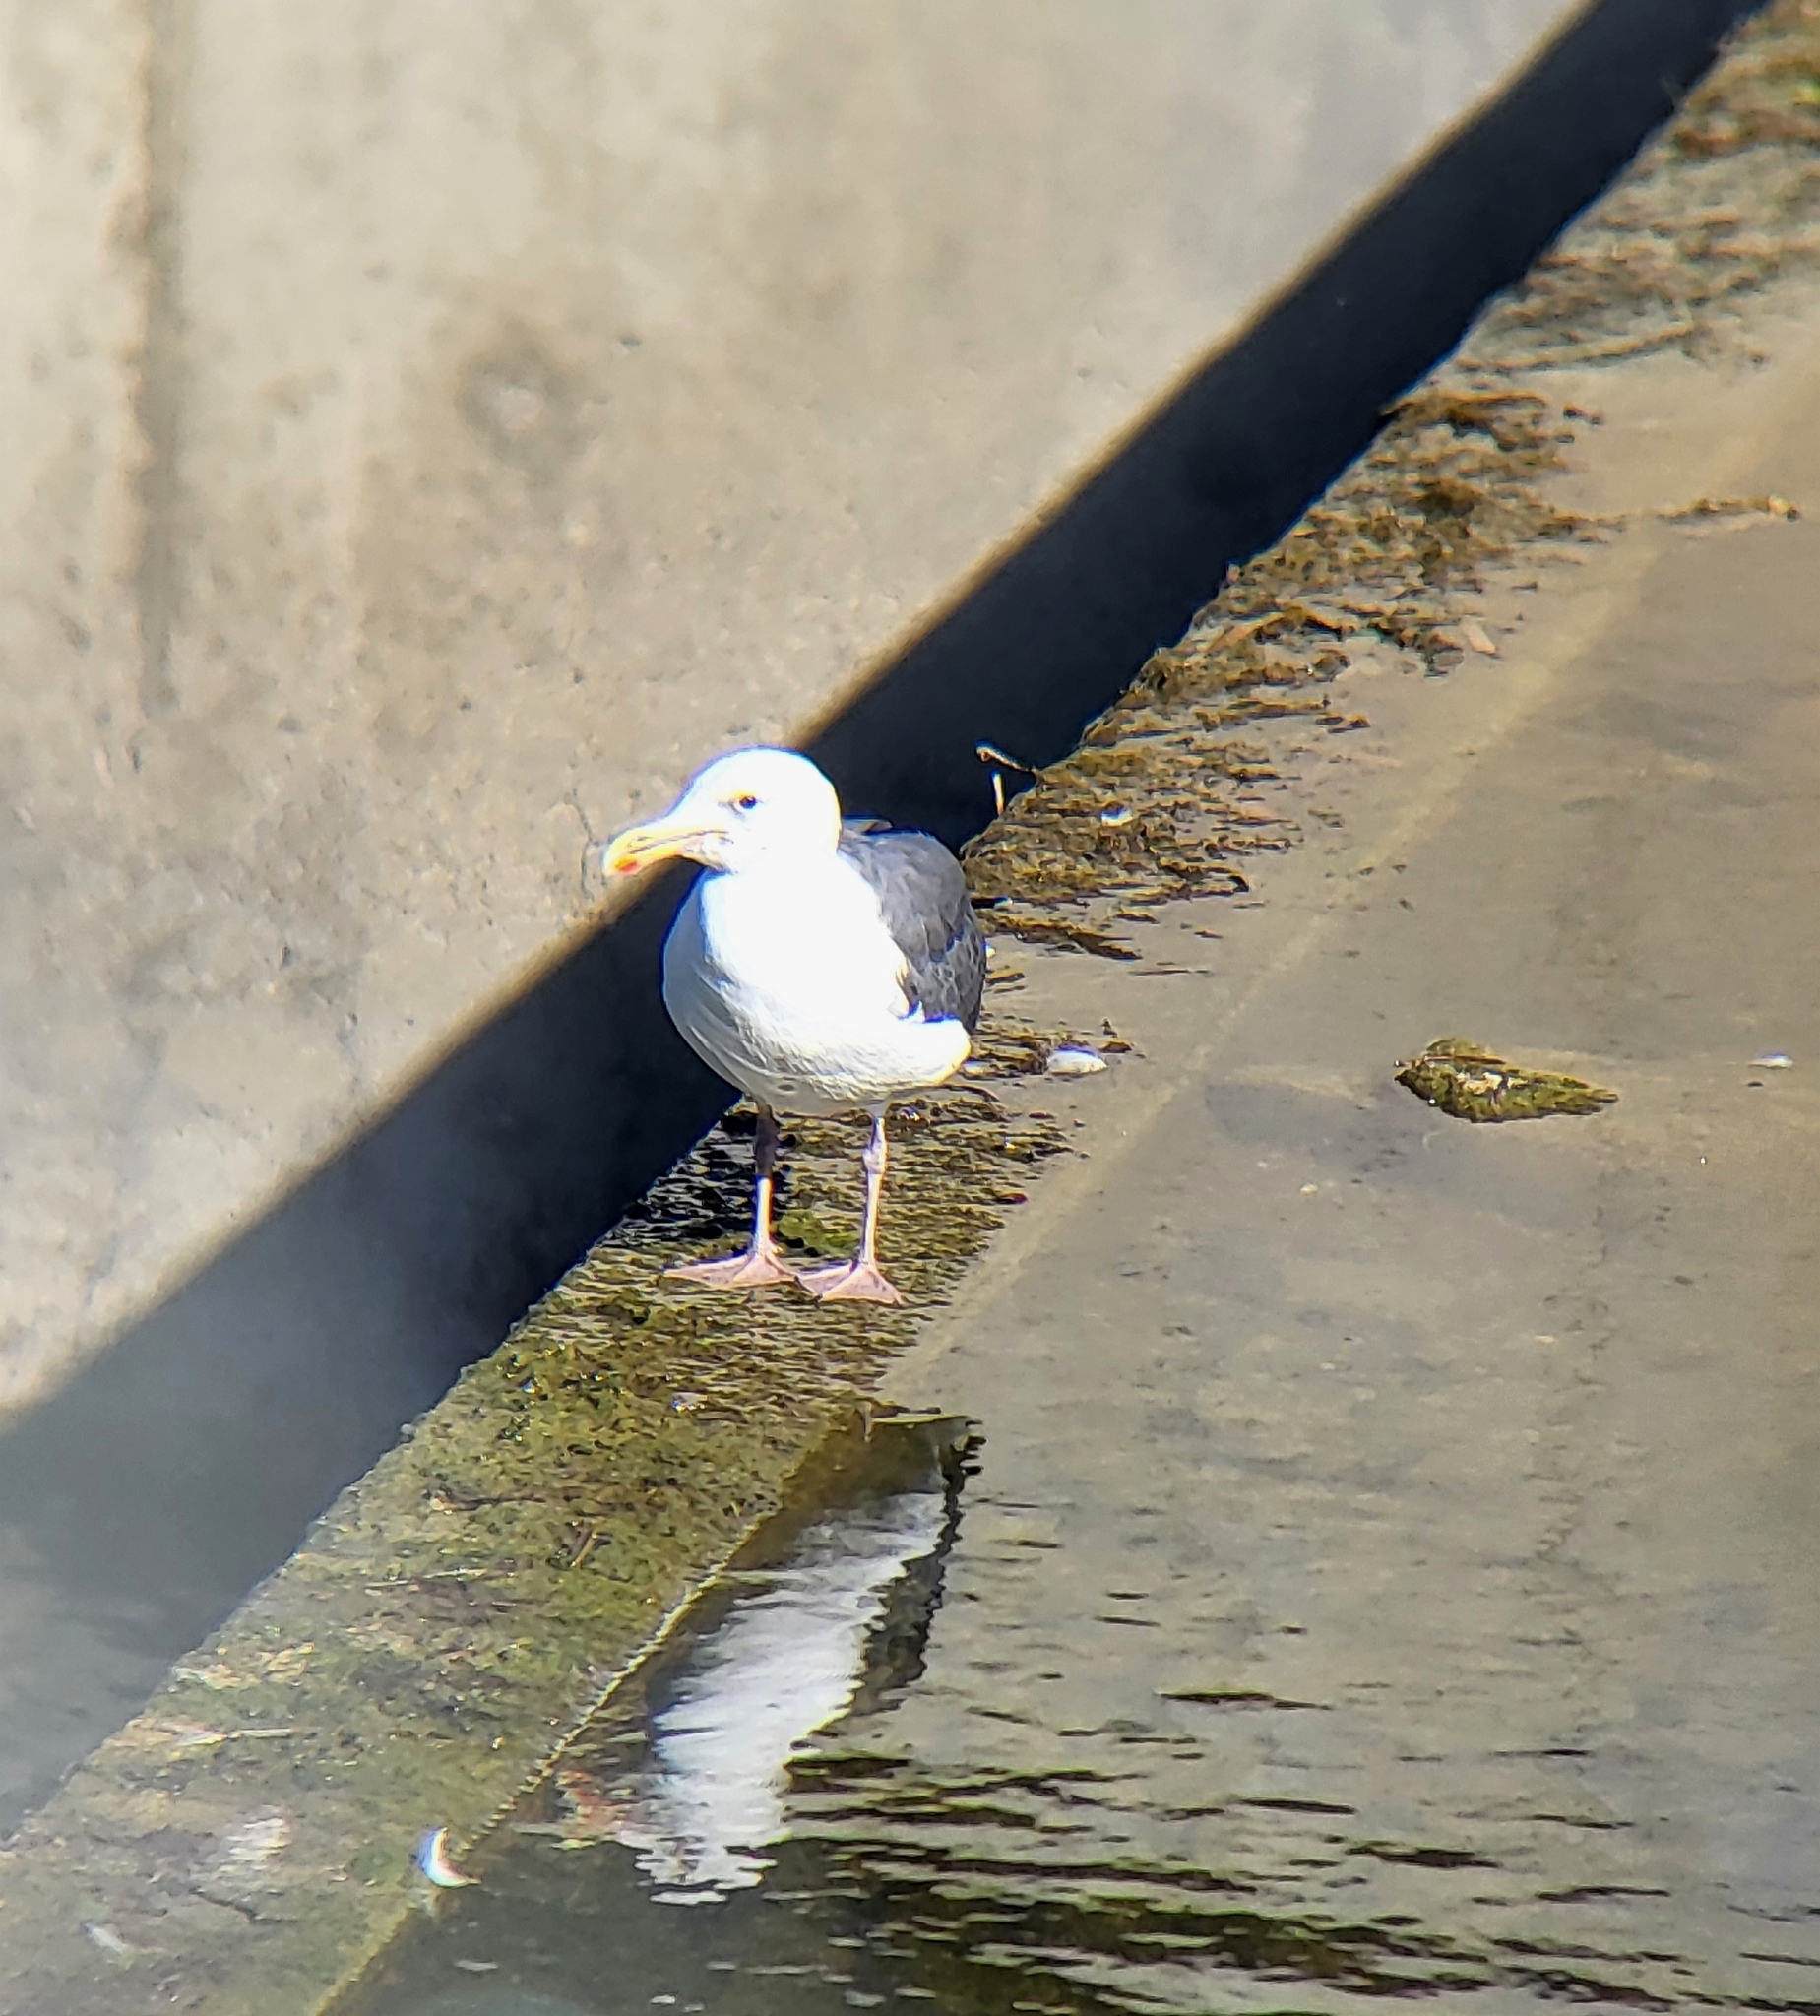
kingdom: Animalia
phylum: Chordata
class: Aves
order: Charadriiformes
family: Laridae
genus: Larus
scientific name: Larus occidentalis
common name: Western gull
